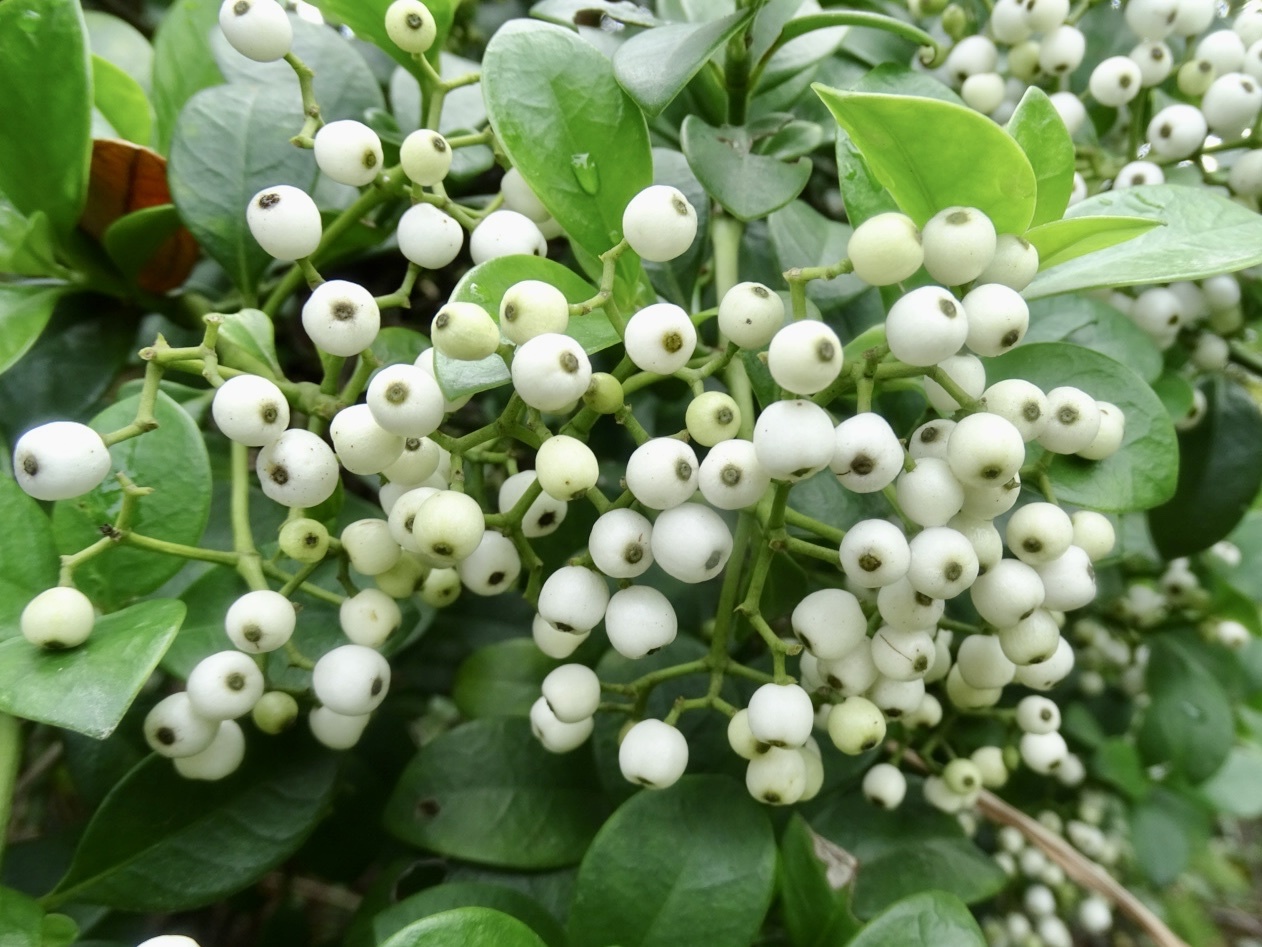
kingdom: Plantae
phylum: Tracheophyta
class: Magnoliopsida
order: Gentianales
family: Rubiaceae
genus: Psychotria
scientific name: Psychotria serpens
